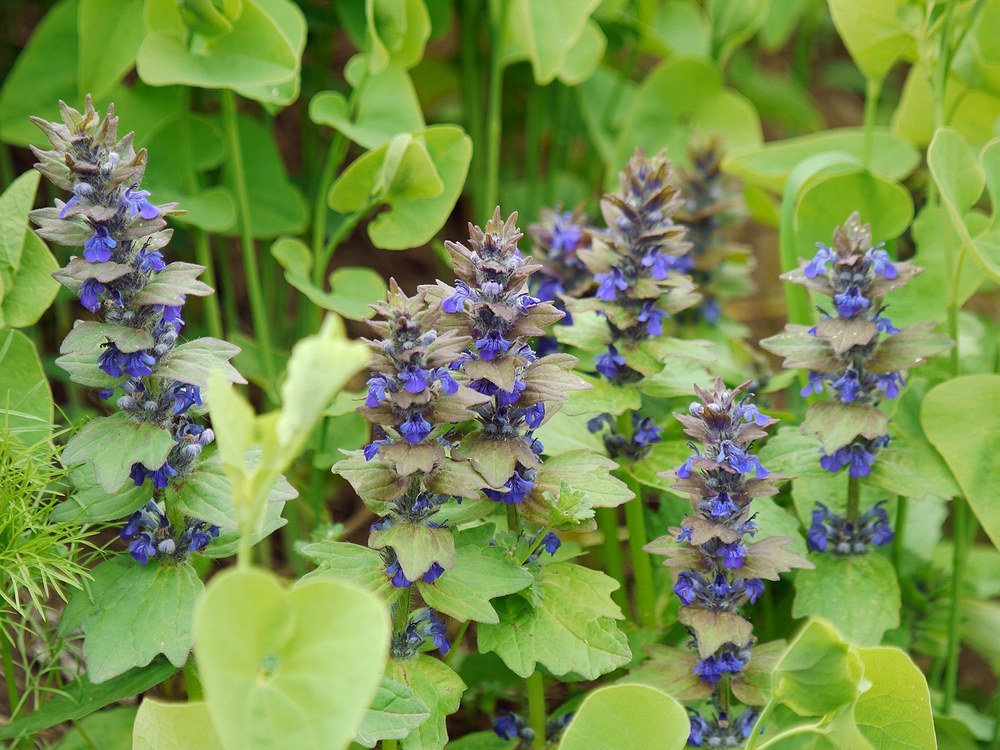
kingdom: Plantae
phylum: Tracheophyta
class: Magnoliopsida
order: Lamiales
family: Lamiaceae
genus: Ajuga
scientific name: Ajuga genevensis
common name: Blue bugle
